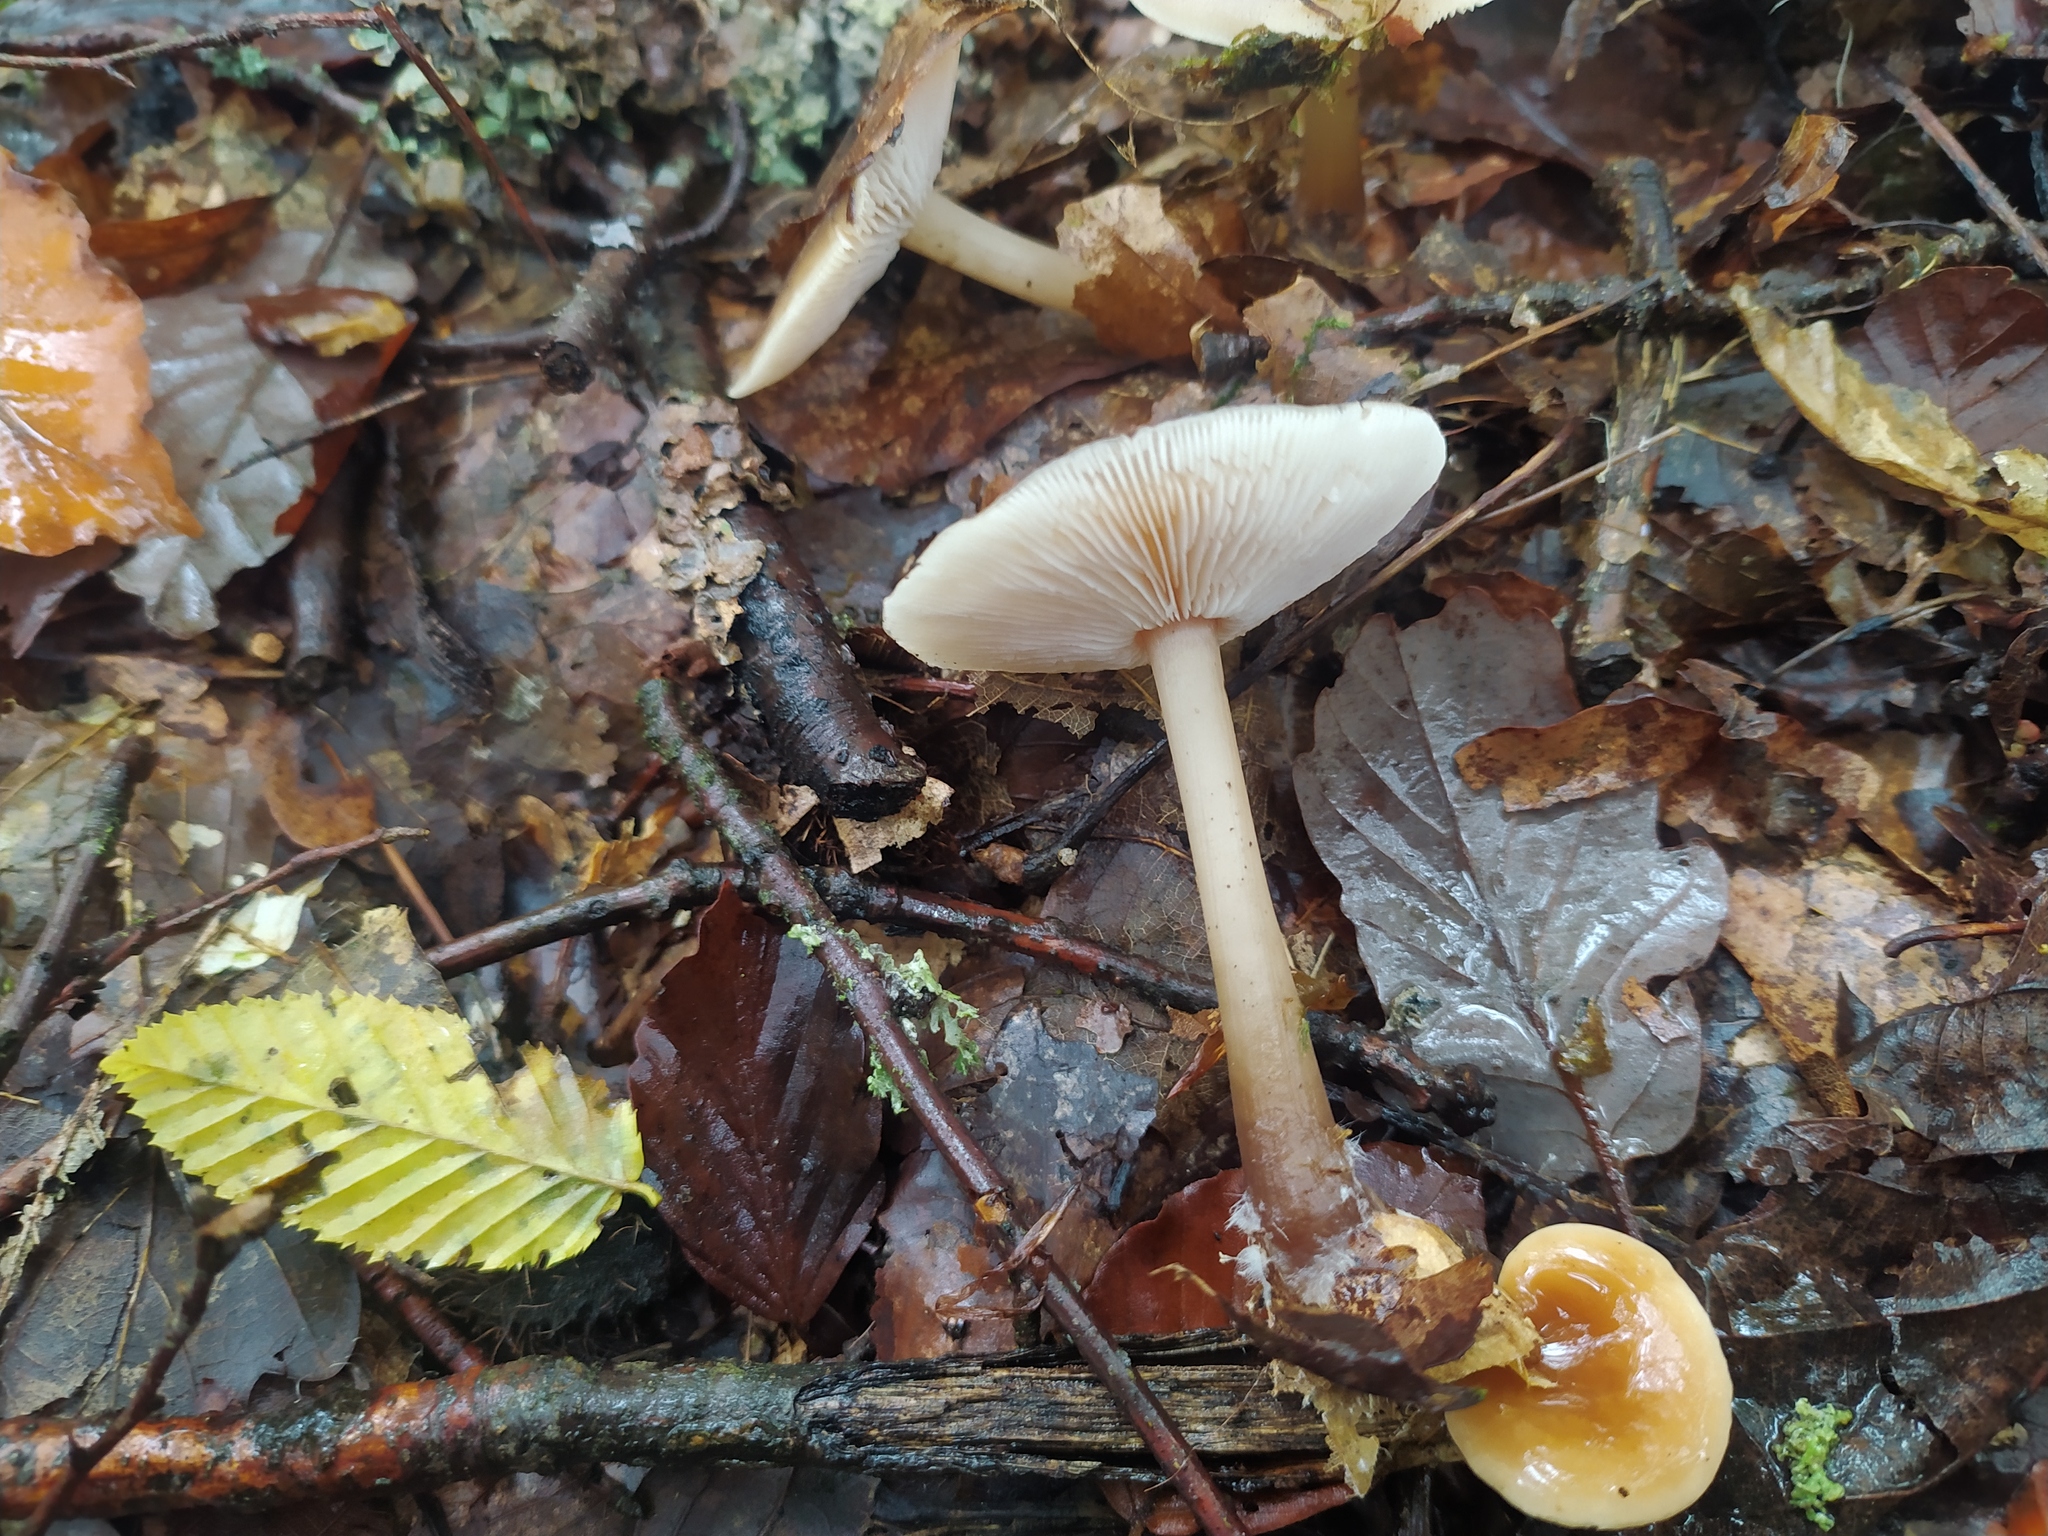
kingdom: Fungi
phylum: Basidiomycota
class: Agaricomycetes
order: Agaricales
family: Omphalotaceae
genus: Rhodocollybia
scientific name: Rhodocollybia butyracea
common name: Butter cap
